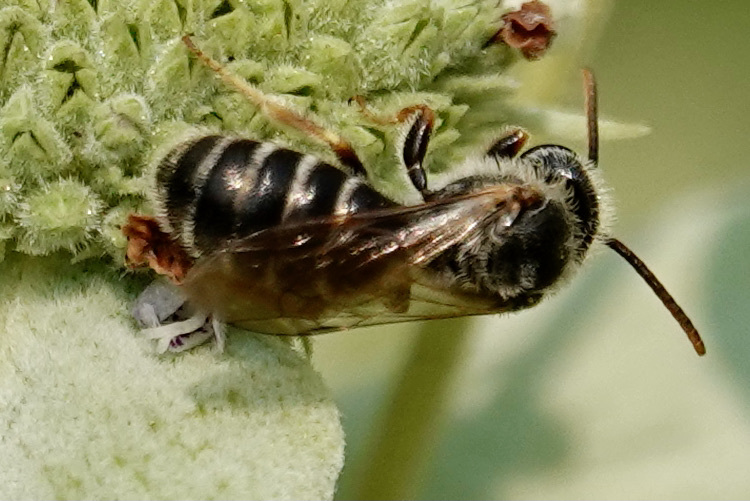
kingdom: Animalia
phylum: Arthropoda
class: Insecta
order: Hymenoptera
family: Halictidae
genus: Halictus
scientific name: Halictus parallelus
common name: Parallel-striped sweat bee
